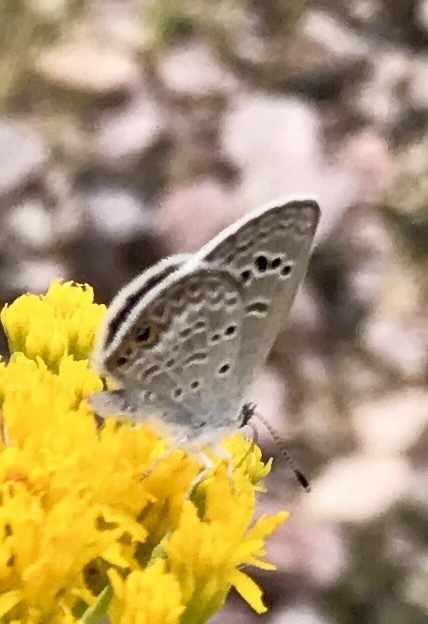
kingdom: Animalia
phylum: Arthropoda
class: Insecta
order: Lepidoptera
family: Lycaenidae
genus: Echinargus
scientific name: Echinargus isola
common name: Reakirt's blue
